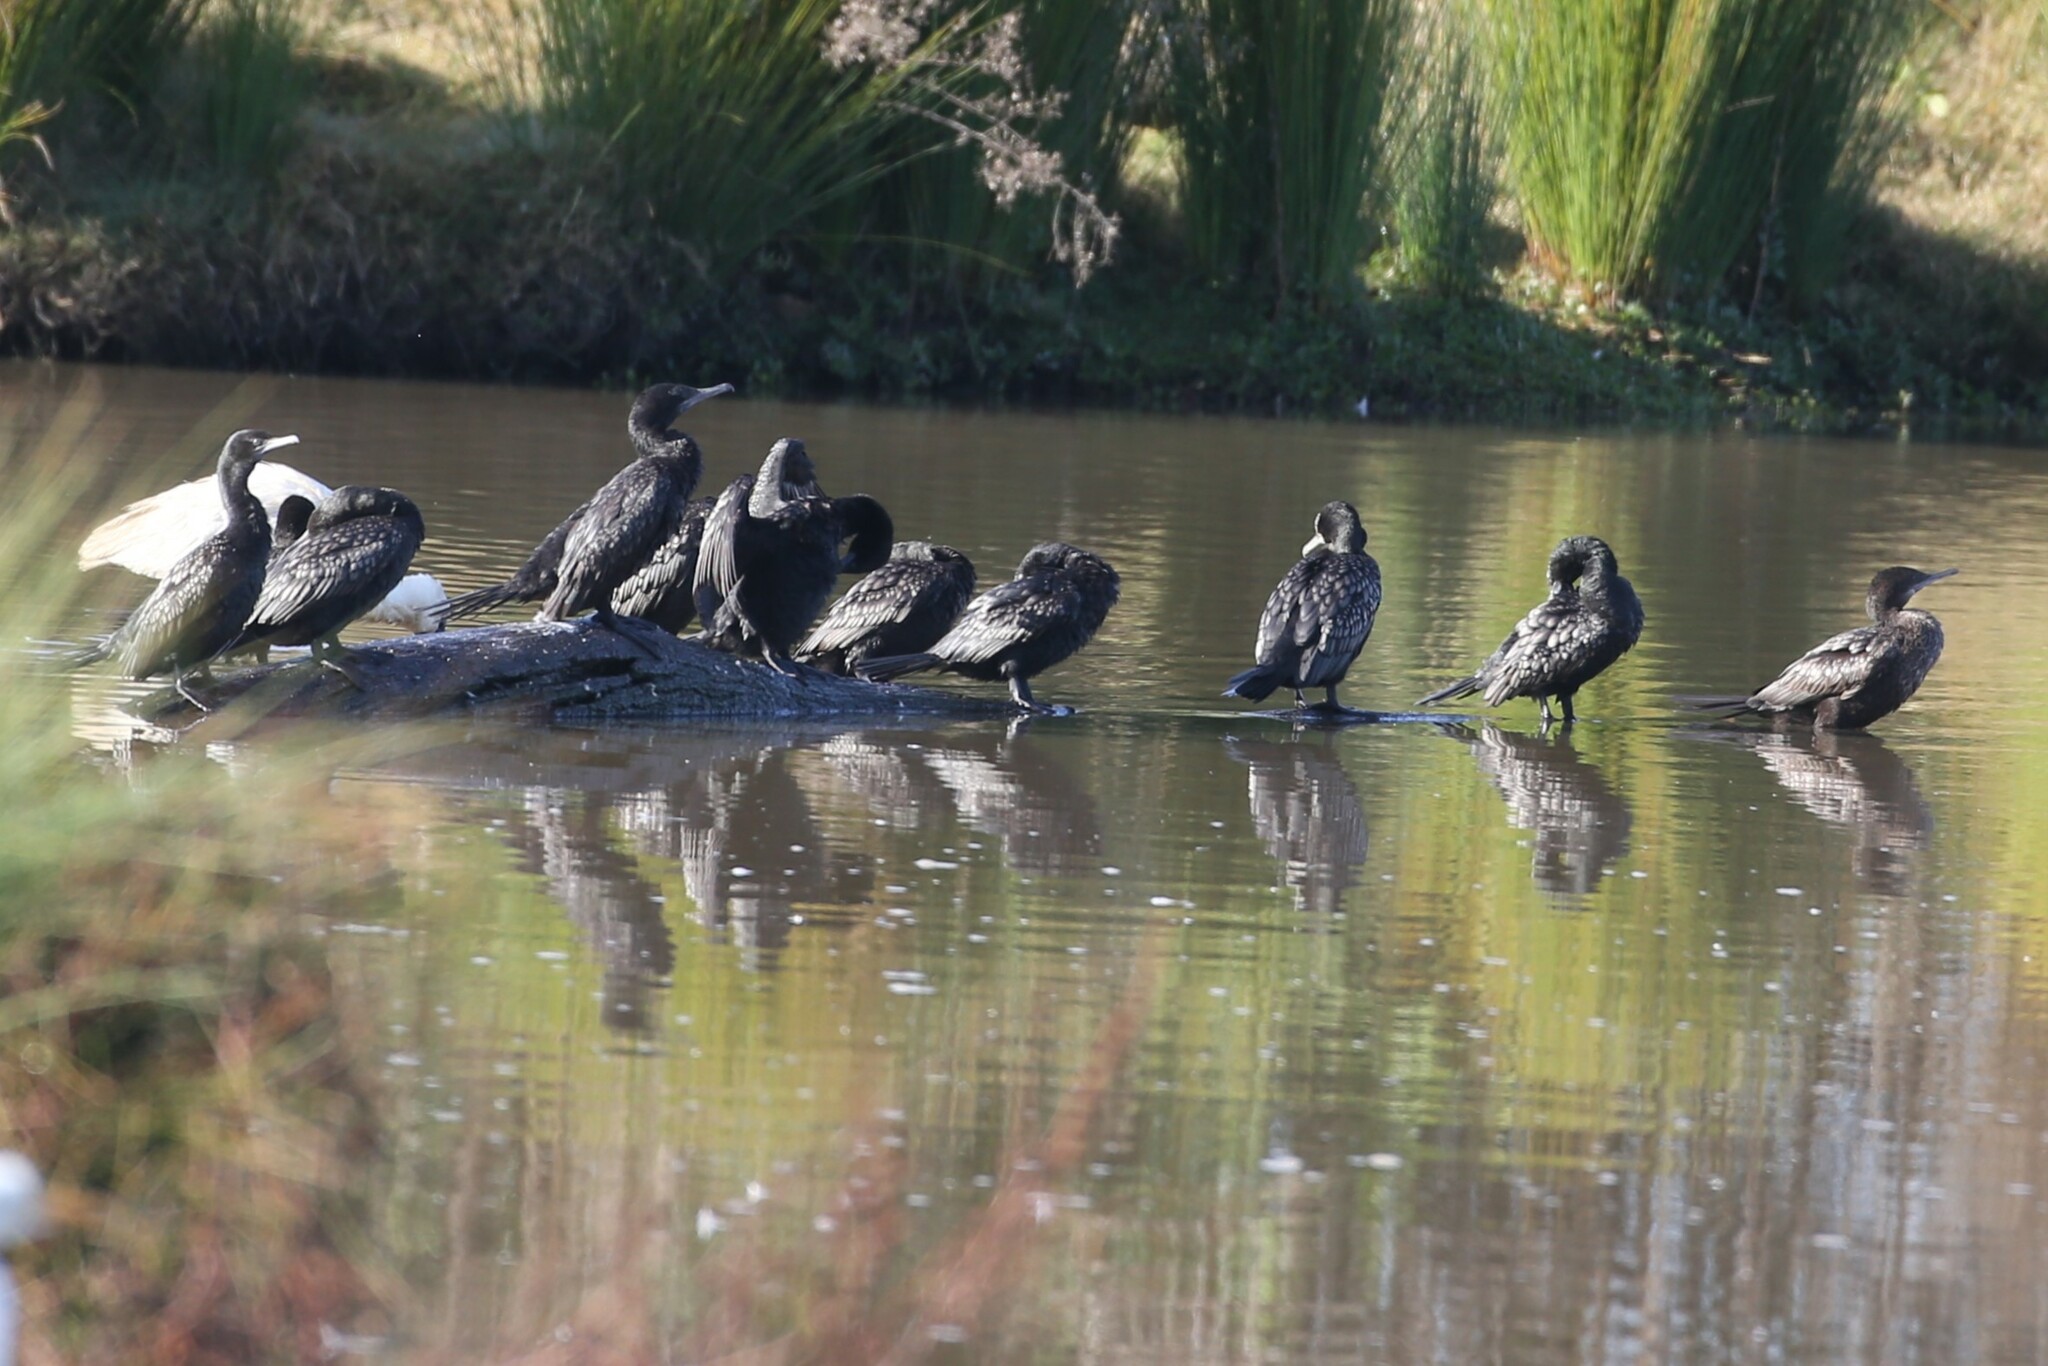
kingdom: Animalia
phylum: Chordata
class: Aves
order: Suliformes
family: Phalacrocoracidae
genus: Phalacrocorax
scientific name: Phalacrocorax sulcirostris
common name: Little black cormorant
